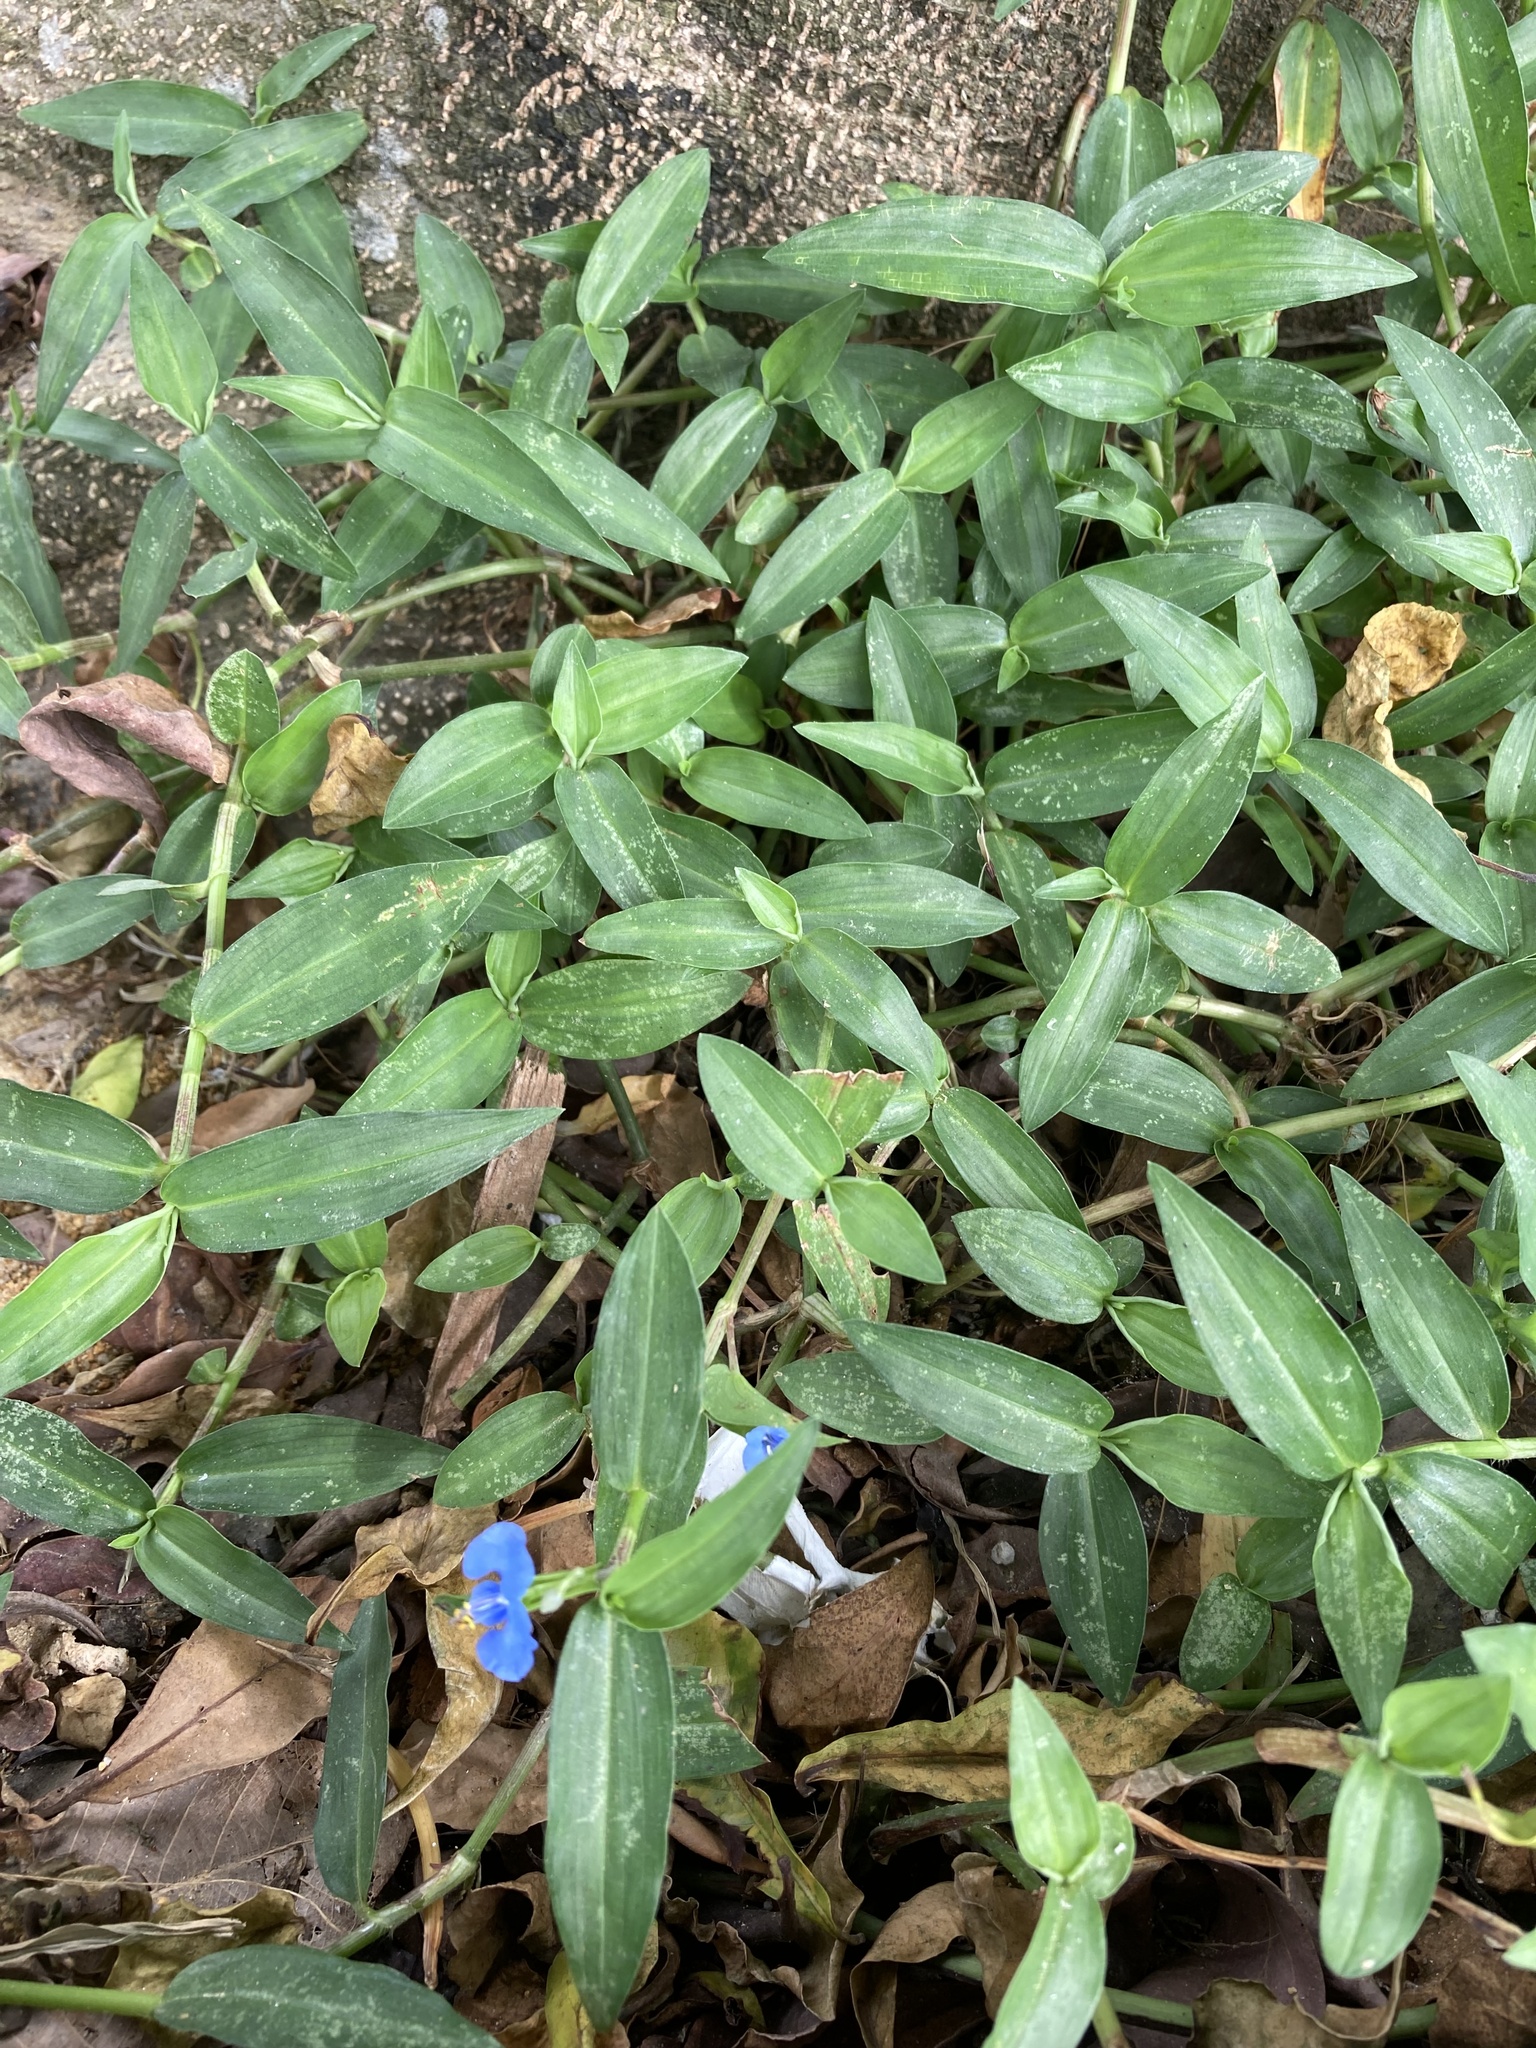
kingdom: Plantae
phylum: Tracheophyta
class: Liliopsida
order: Commelinales
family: Commelinaceae
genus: Commelina
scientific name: Commelina diffusa
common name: Climbing dayflower
